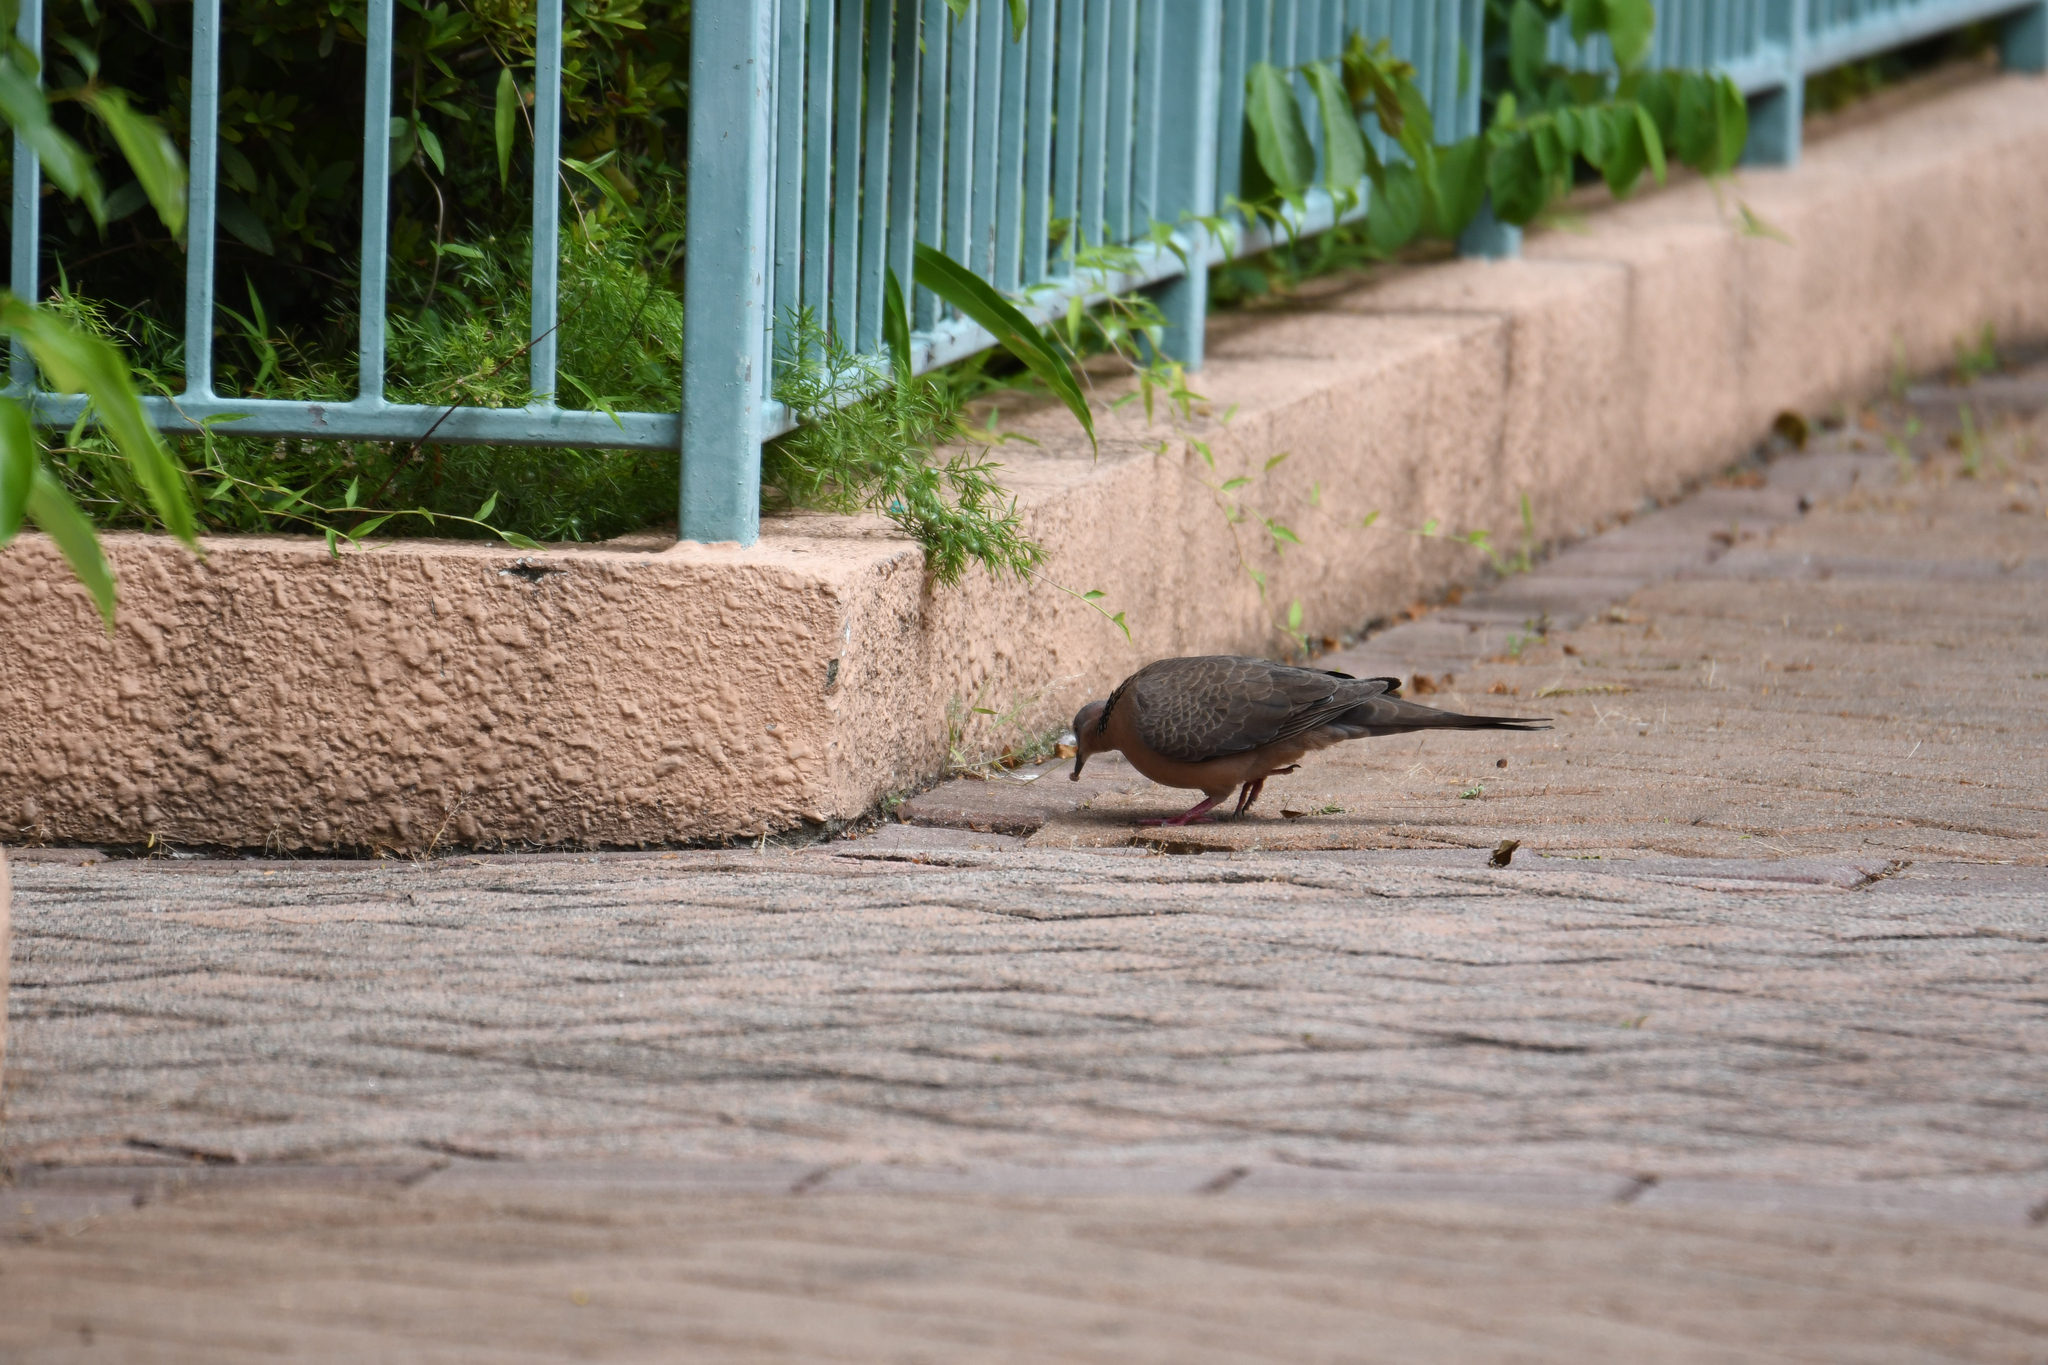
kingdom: Animalia
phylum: Chordata
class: Aves
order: Columbiformes
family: Columbidae
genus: Spilopelia
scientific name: Spilopelia chinensis
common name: Spotted dove
